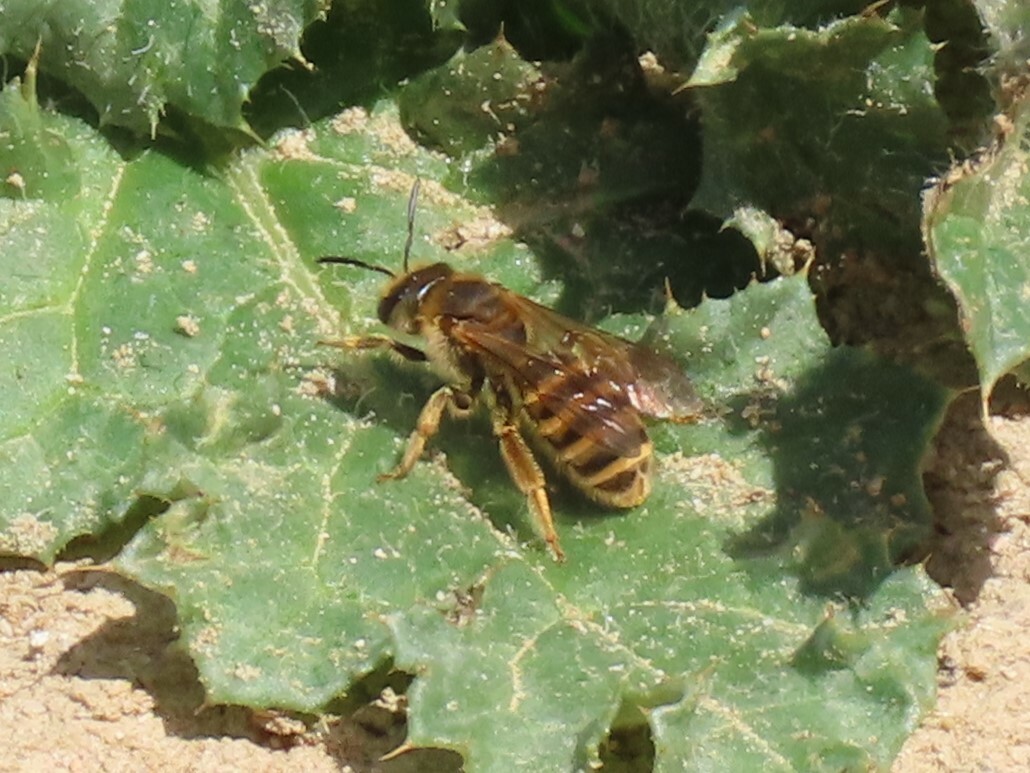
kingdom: Animalia
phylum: Arthropoda
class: Insecta
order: Hymenoptera
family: Halictidae
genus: Halictus
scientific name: Halictus scabiosae
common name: Great banded furrow bee
